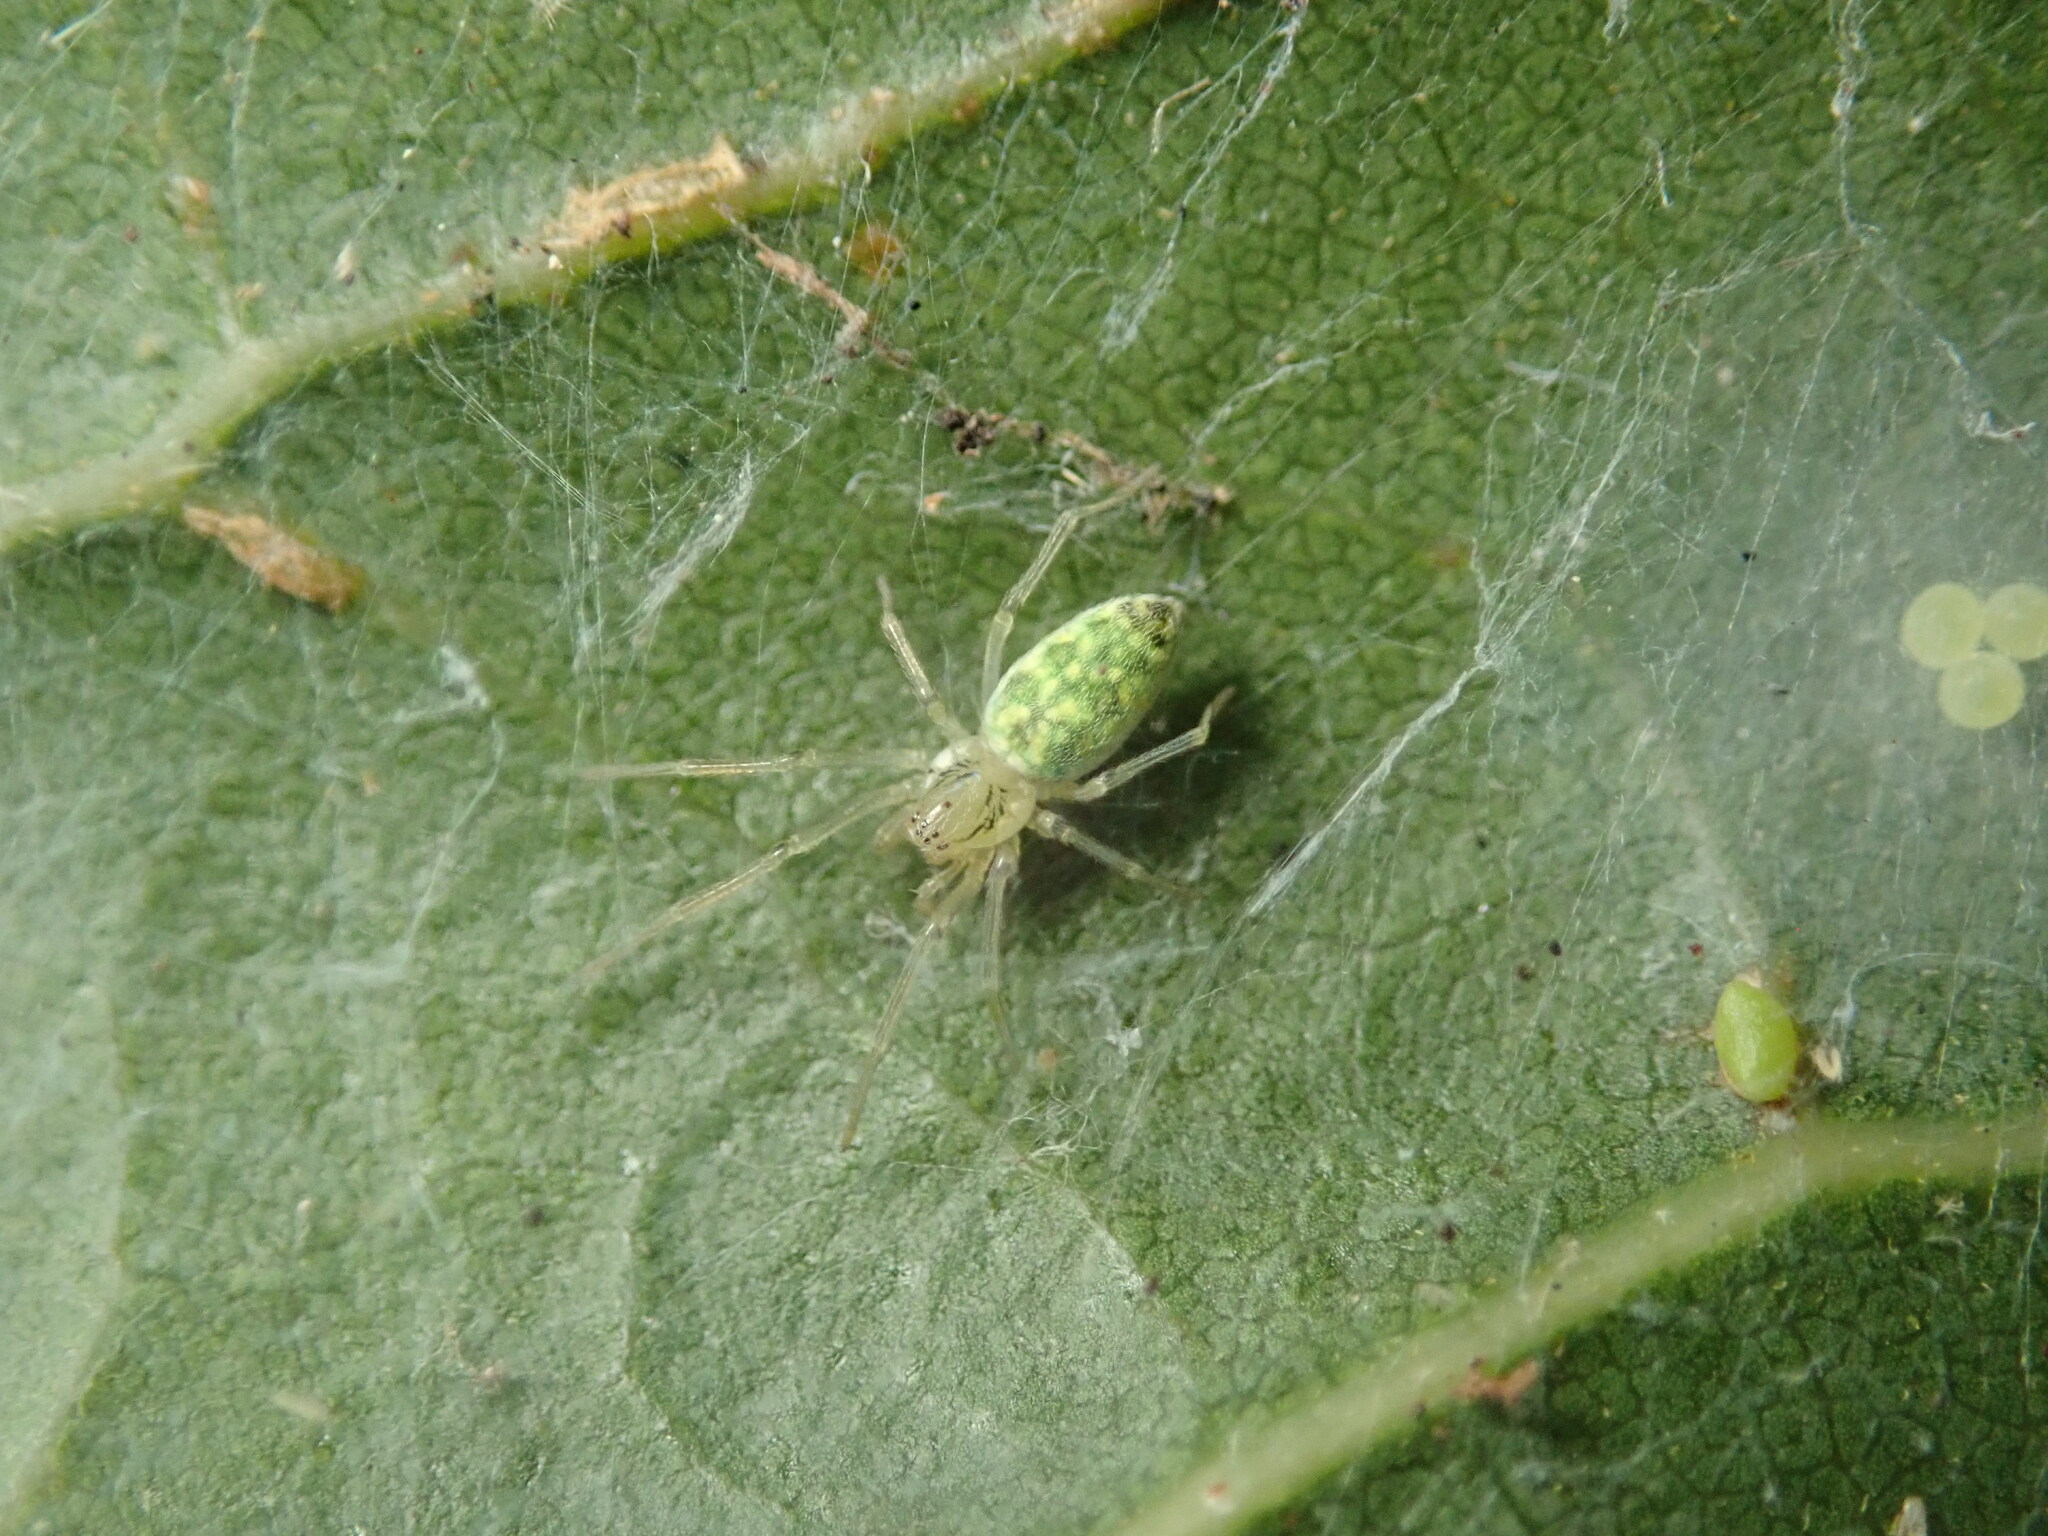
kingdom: Animalia
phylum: Arthropoda
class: Arachnida
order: Araneae
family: Dictynidae
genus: Nigma
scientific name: Nigma linsdalei
